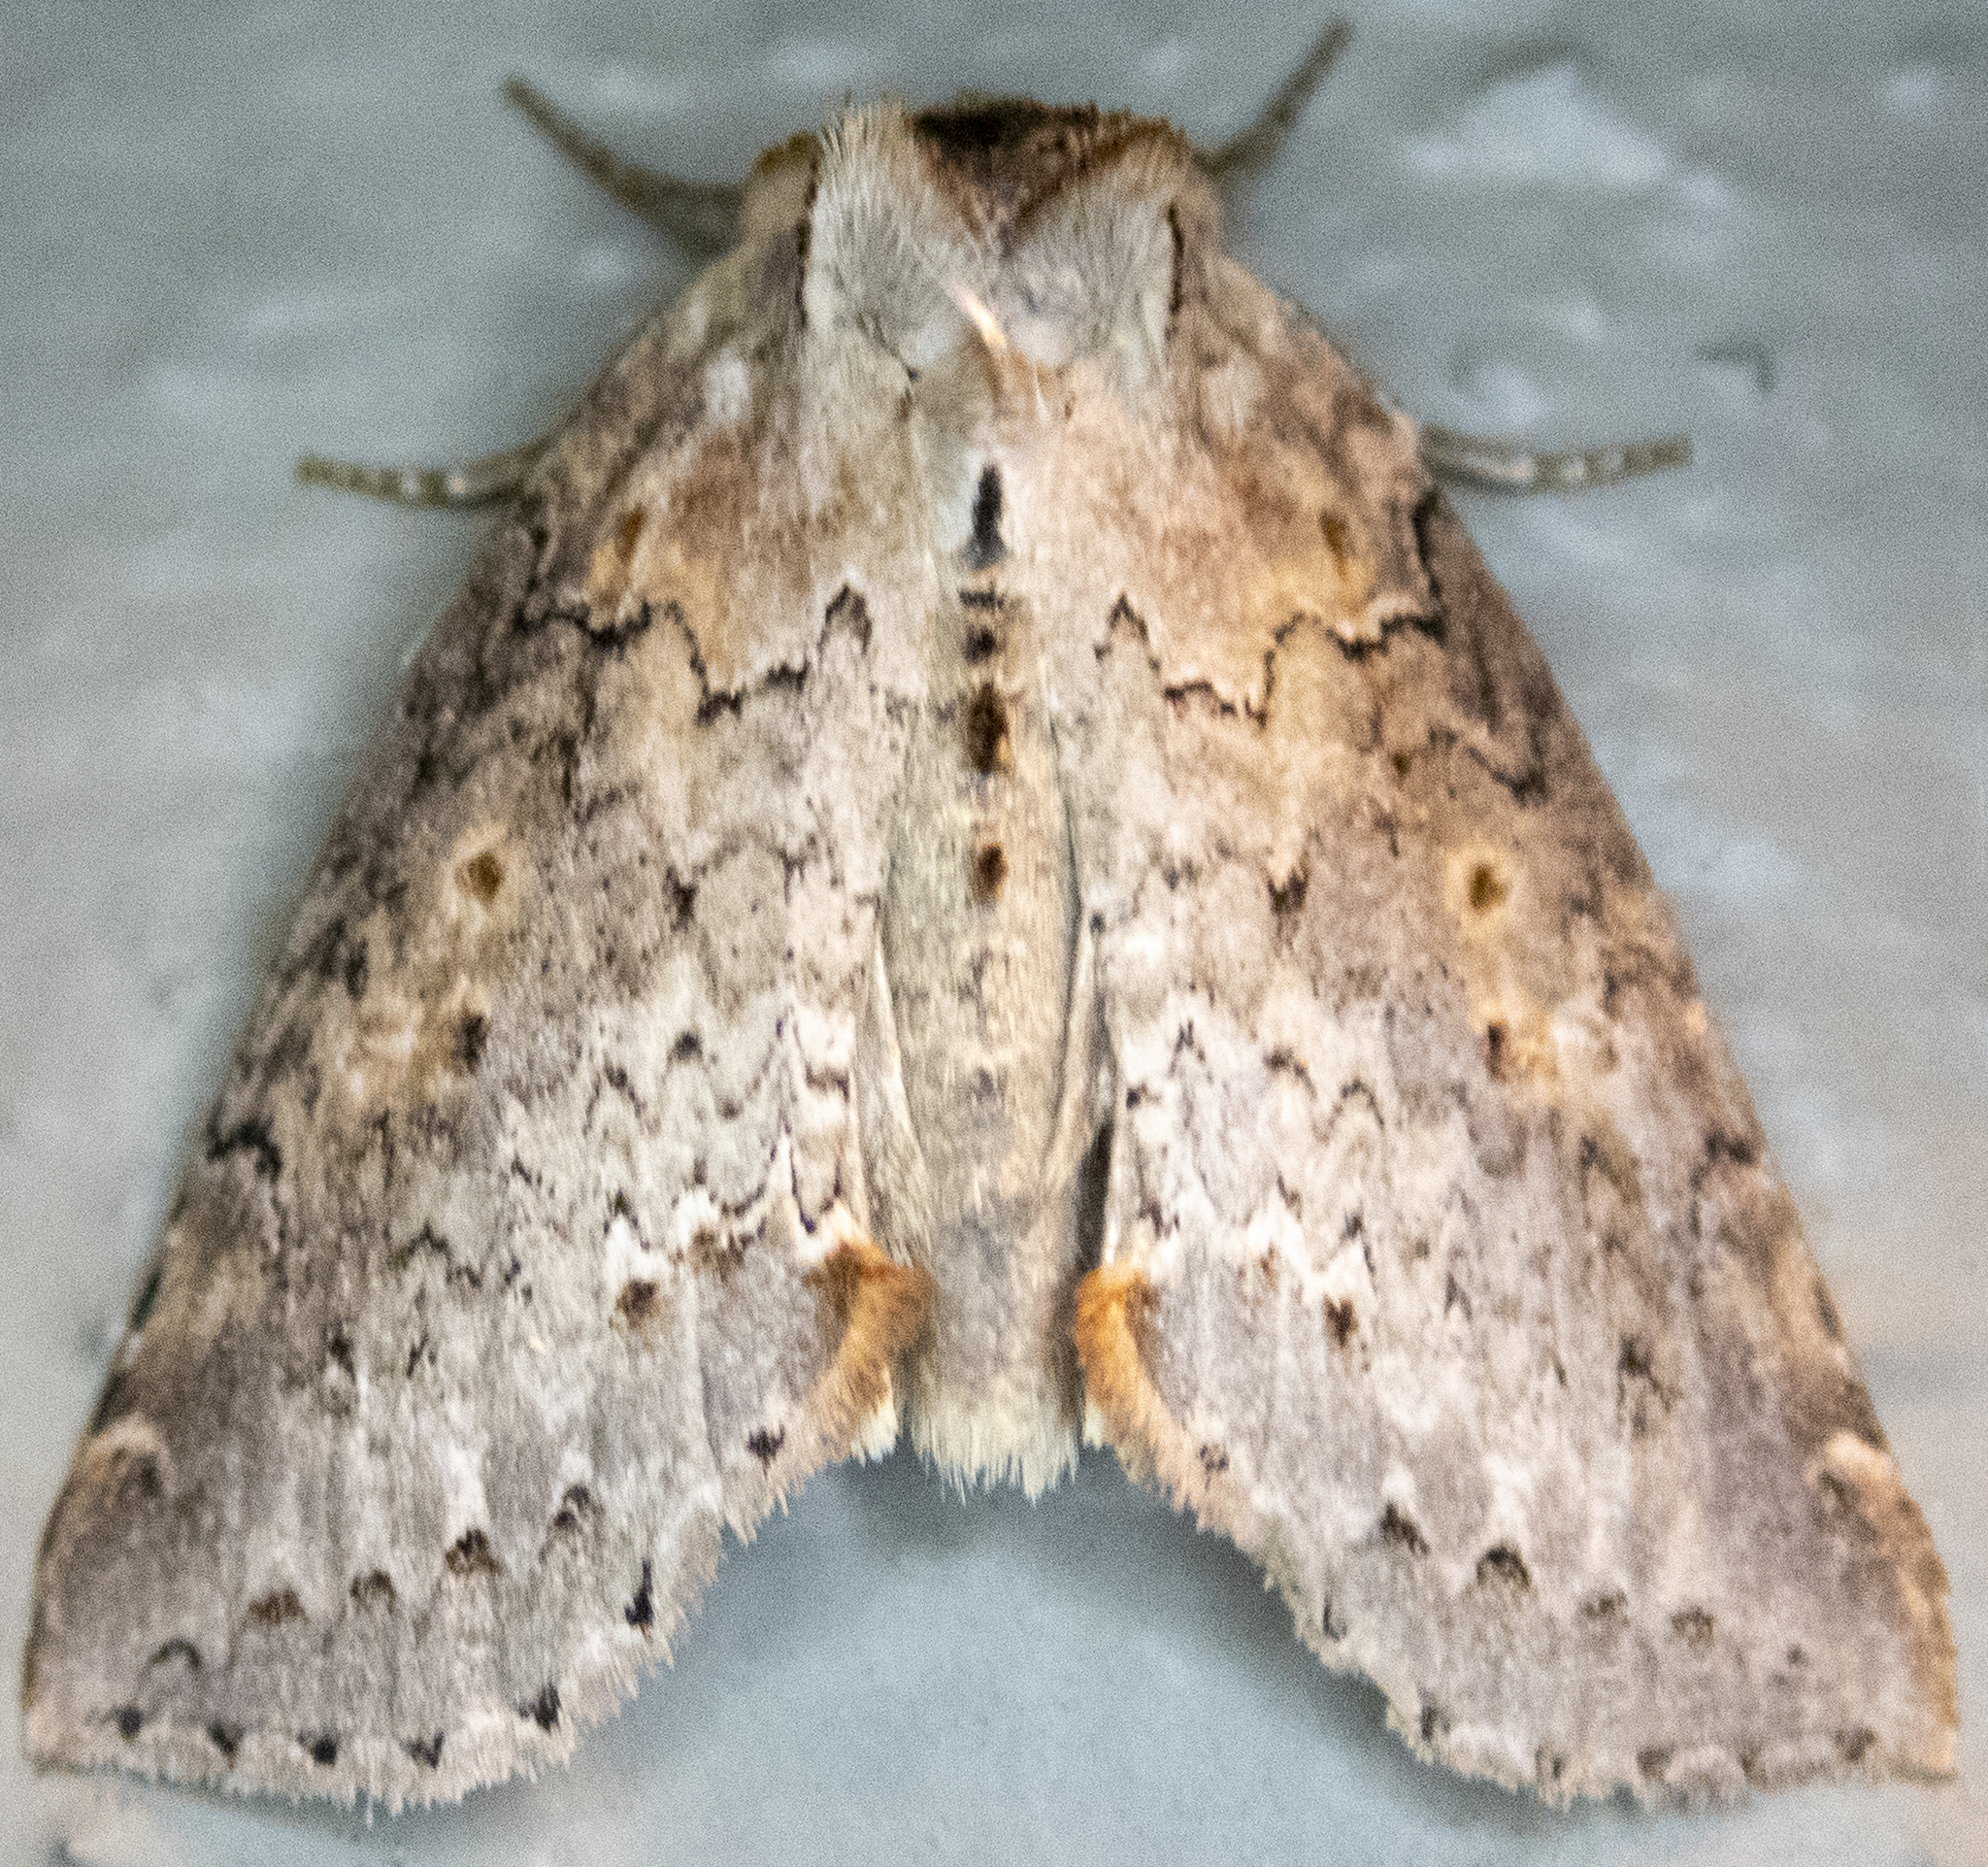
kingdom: Animalia
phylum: Arthropoda
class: Insecta
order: Lepidoptera
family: Drepanidae
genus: Pseudothyatira
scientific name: Pseudothyatira cymatophoroides
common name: Tufted thyatirid moth
